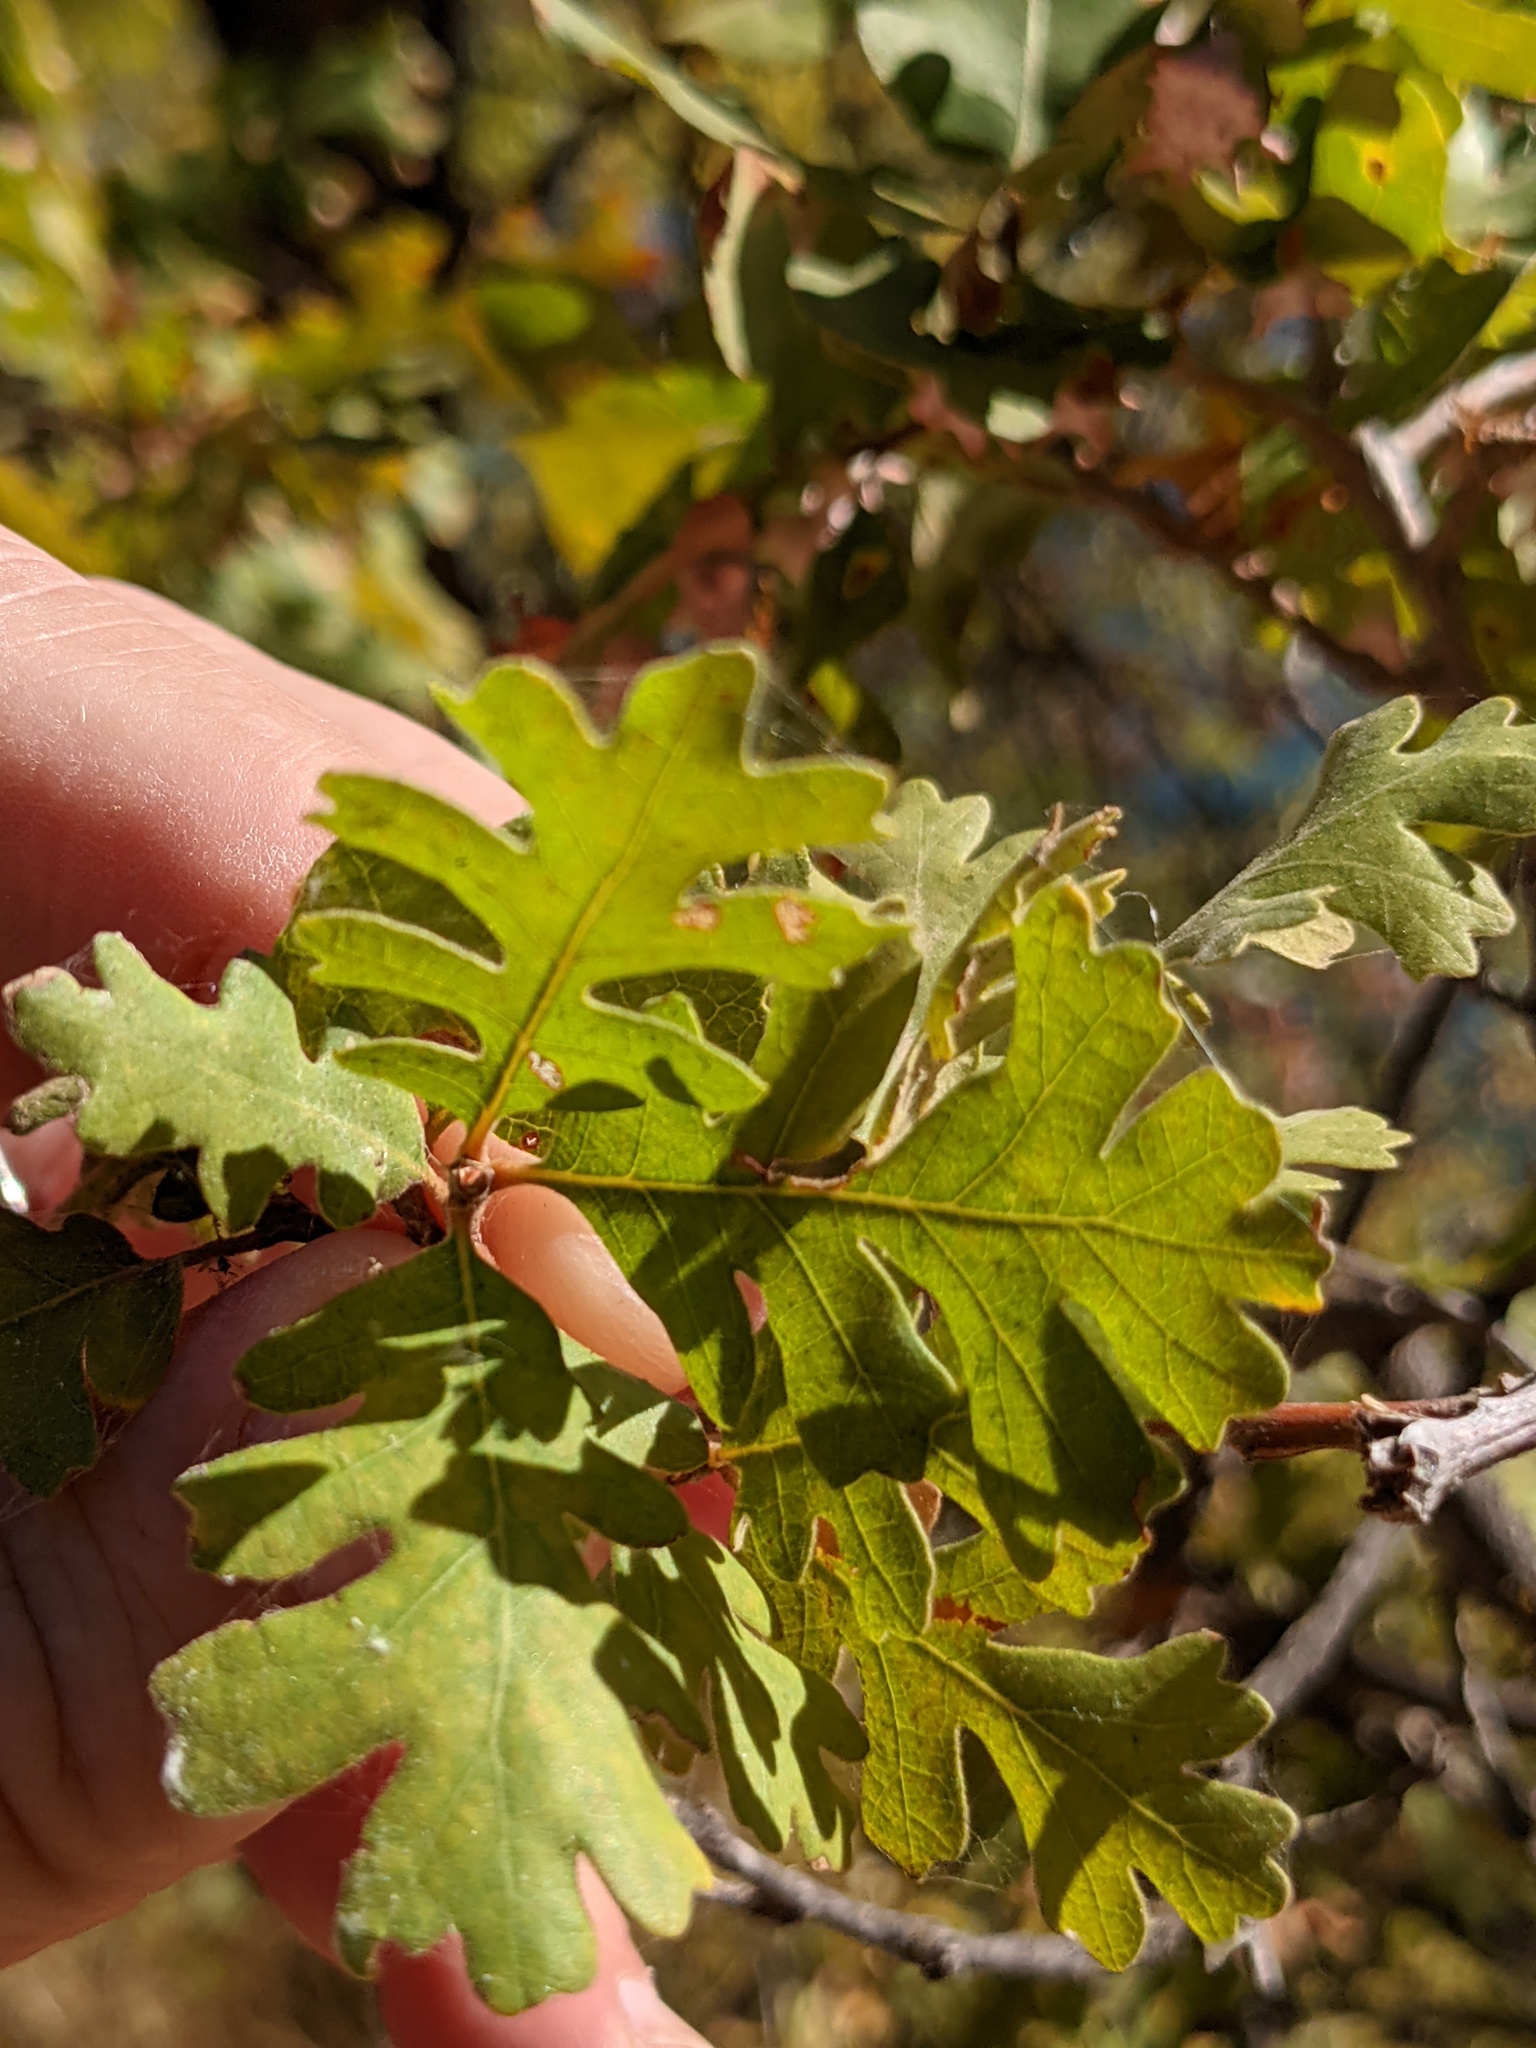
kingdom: Plantae
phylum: Tracheophyta
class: Magnoliopsida
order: Fagales
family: Fagaceae
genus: Quercus
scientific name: Quercus lobata
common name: Valley oak
